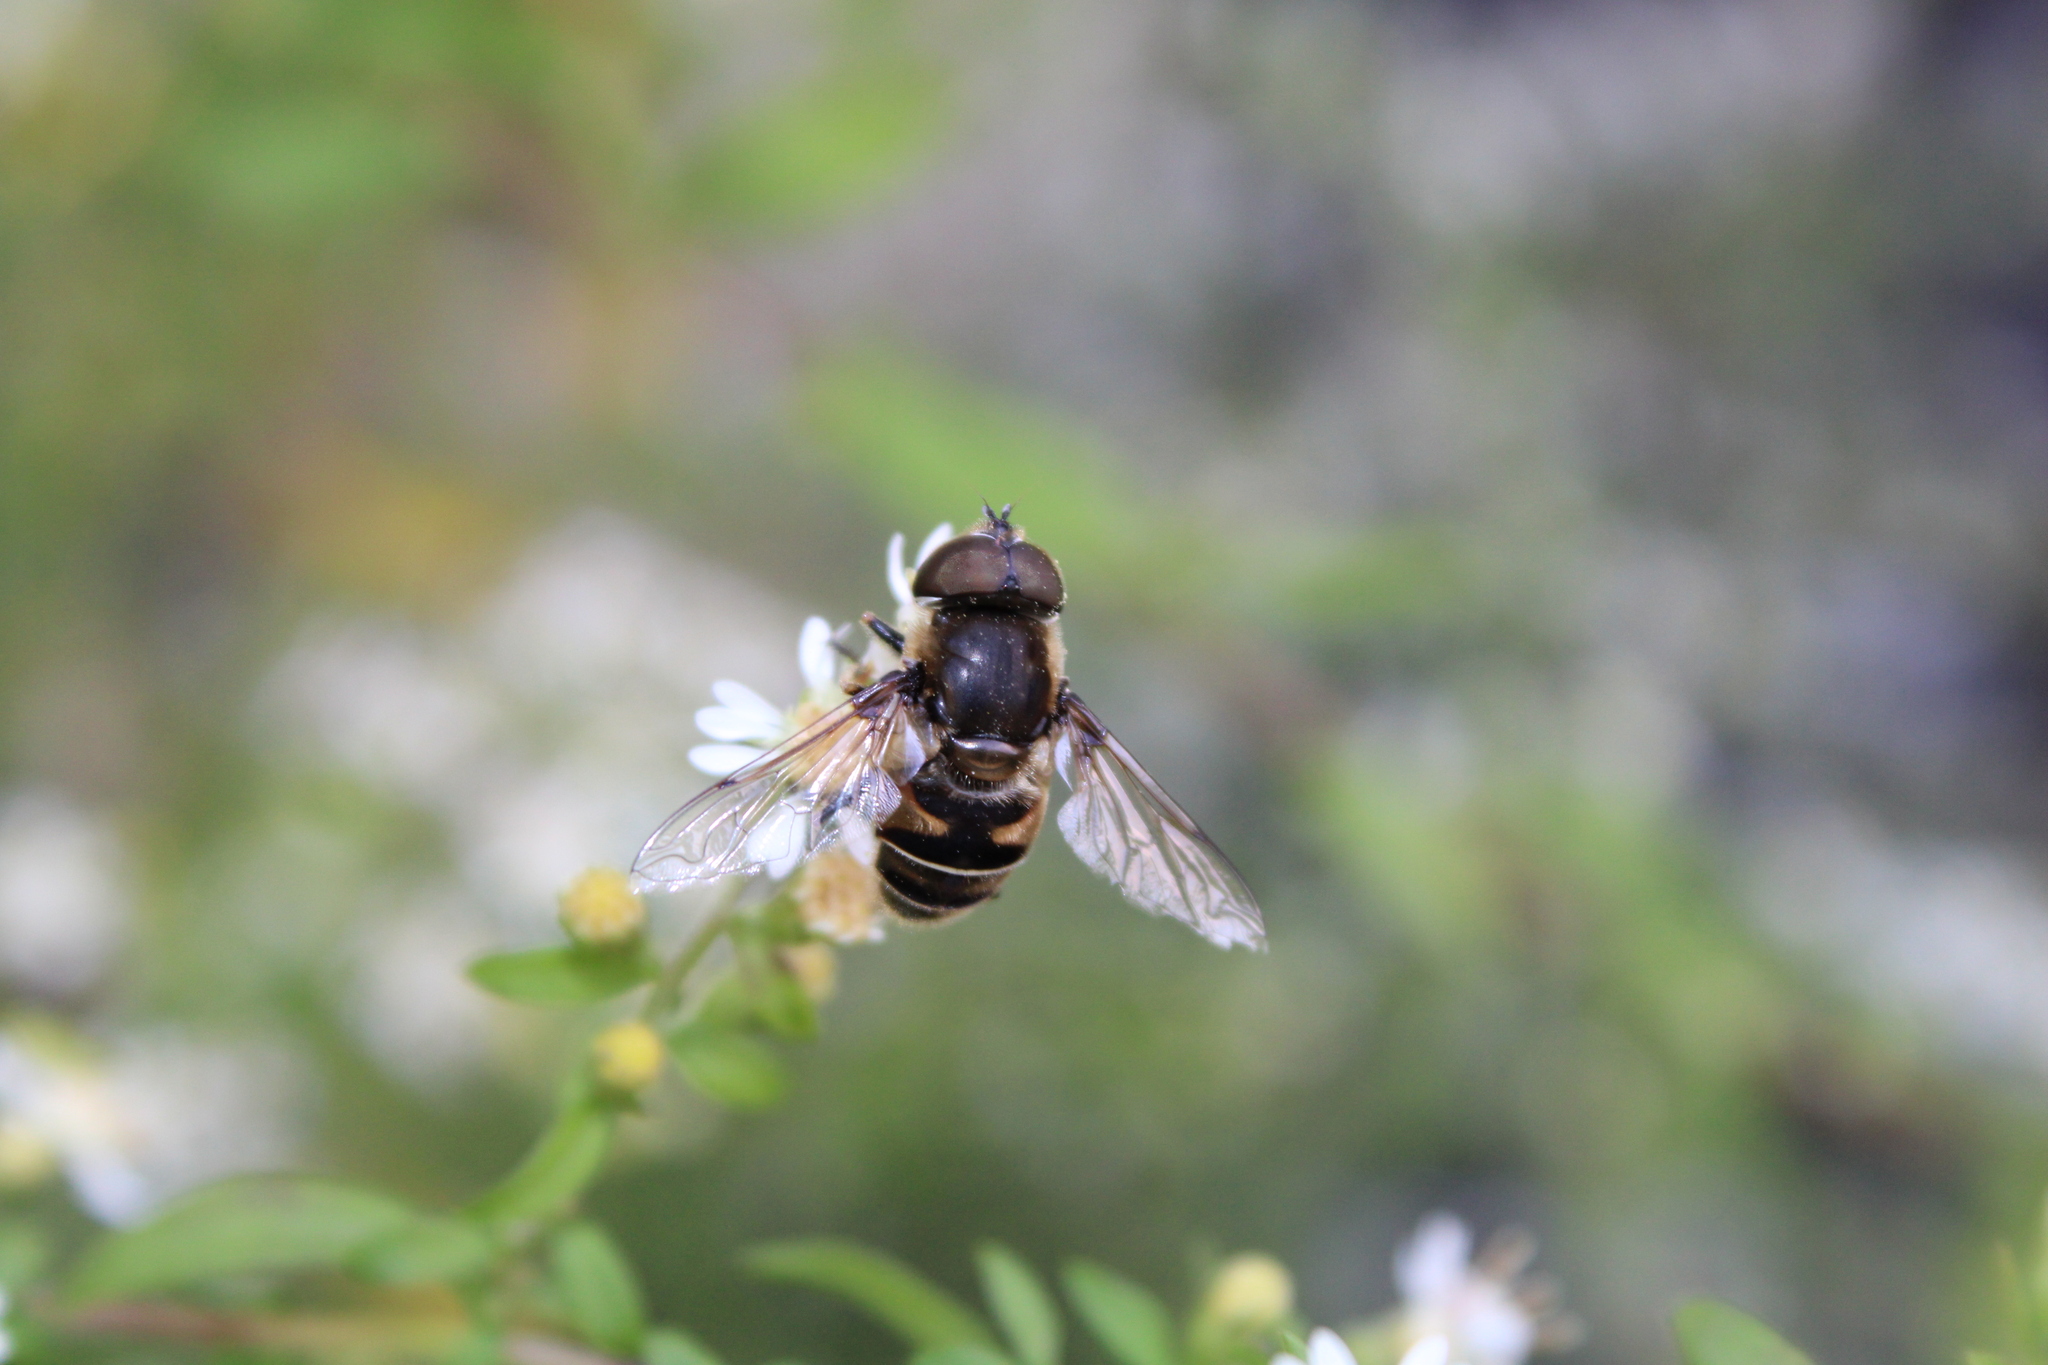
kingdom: Animalia
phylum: Arthropoda
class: Insecta
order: Diptera
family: Syrphidae
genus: Eristalis
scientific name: Eristalis dimidiata
